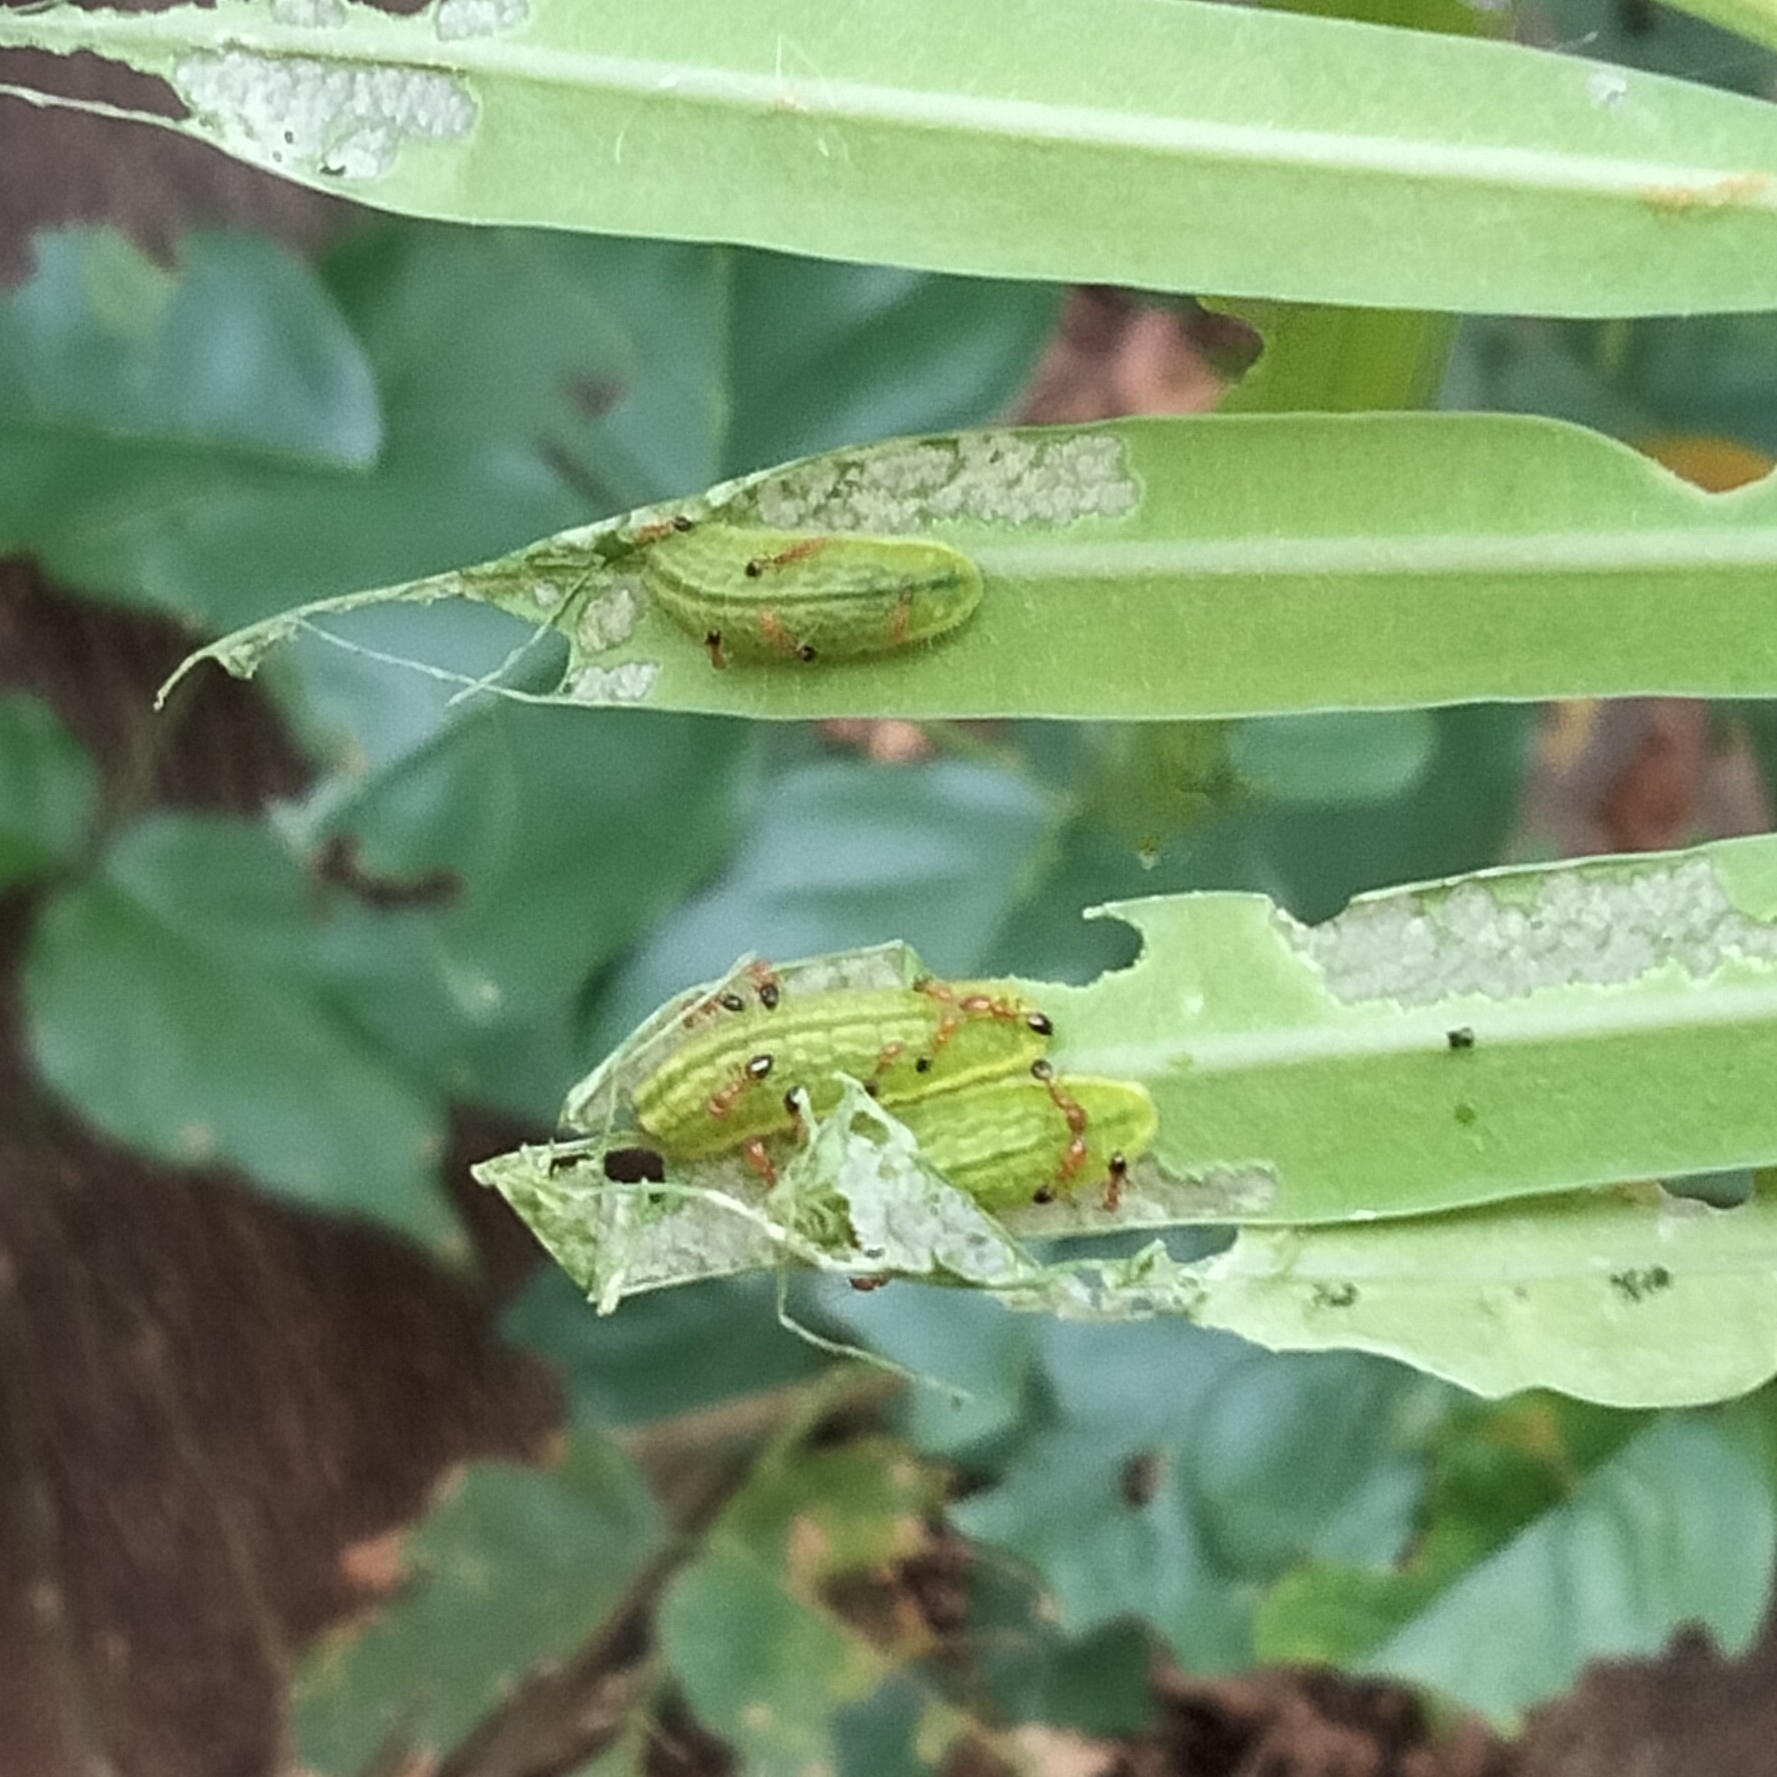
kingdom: Animalia
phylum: Arthropoda
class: Insecta
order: Lepidoptera
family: Lycaenidae
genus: Luthrodes
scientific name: Luthrodes pandava
